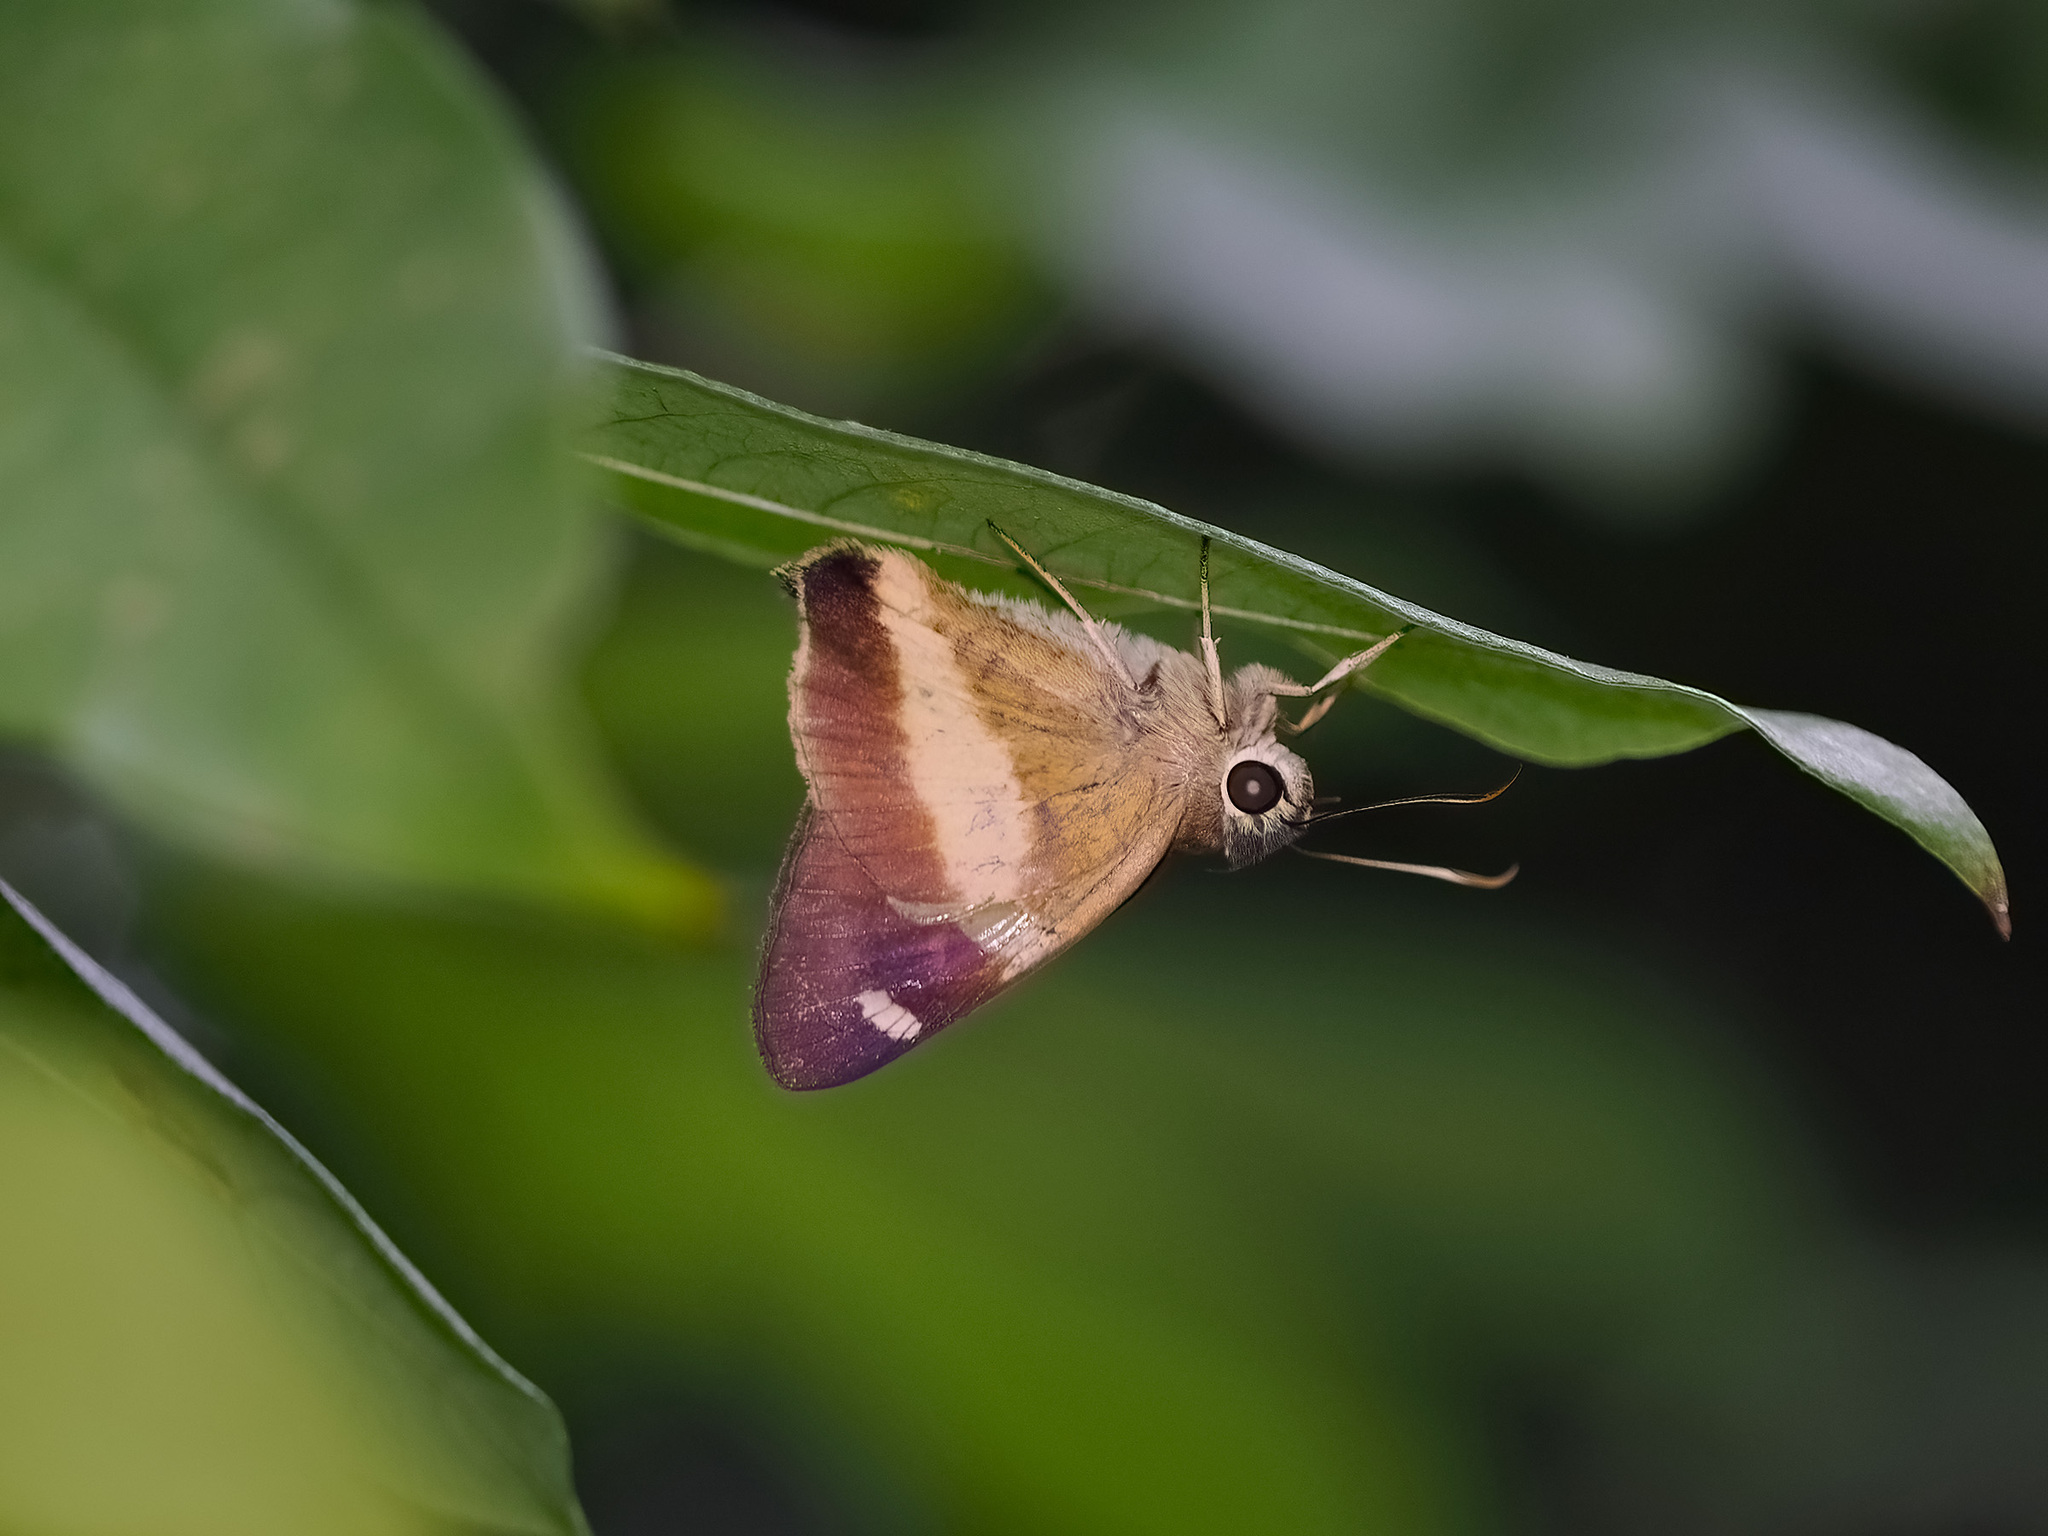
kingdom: Animalia
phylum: Arthropoda
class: Insecta
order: Lepidoptera
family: Hesperiidae
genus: Hasora
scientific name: Hasora schoenherr
